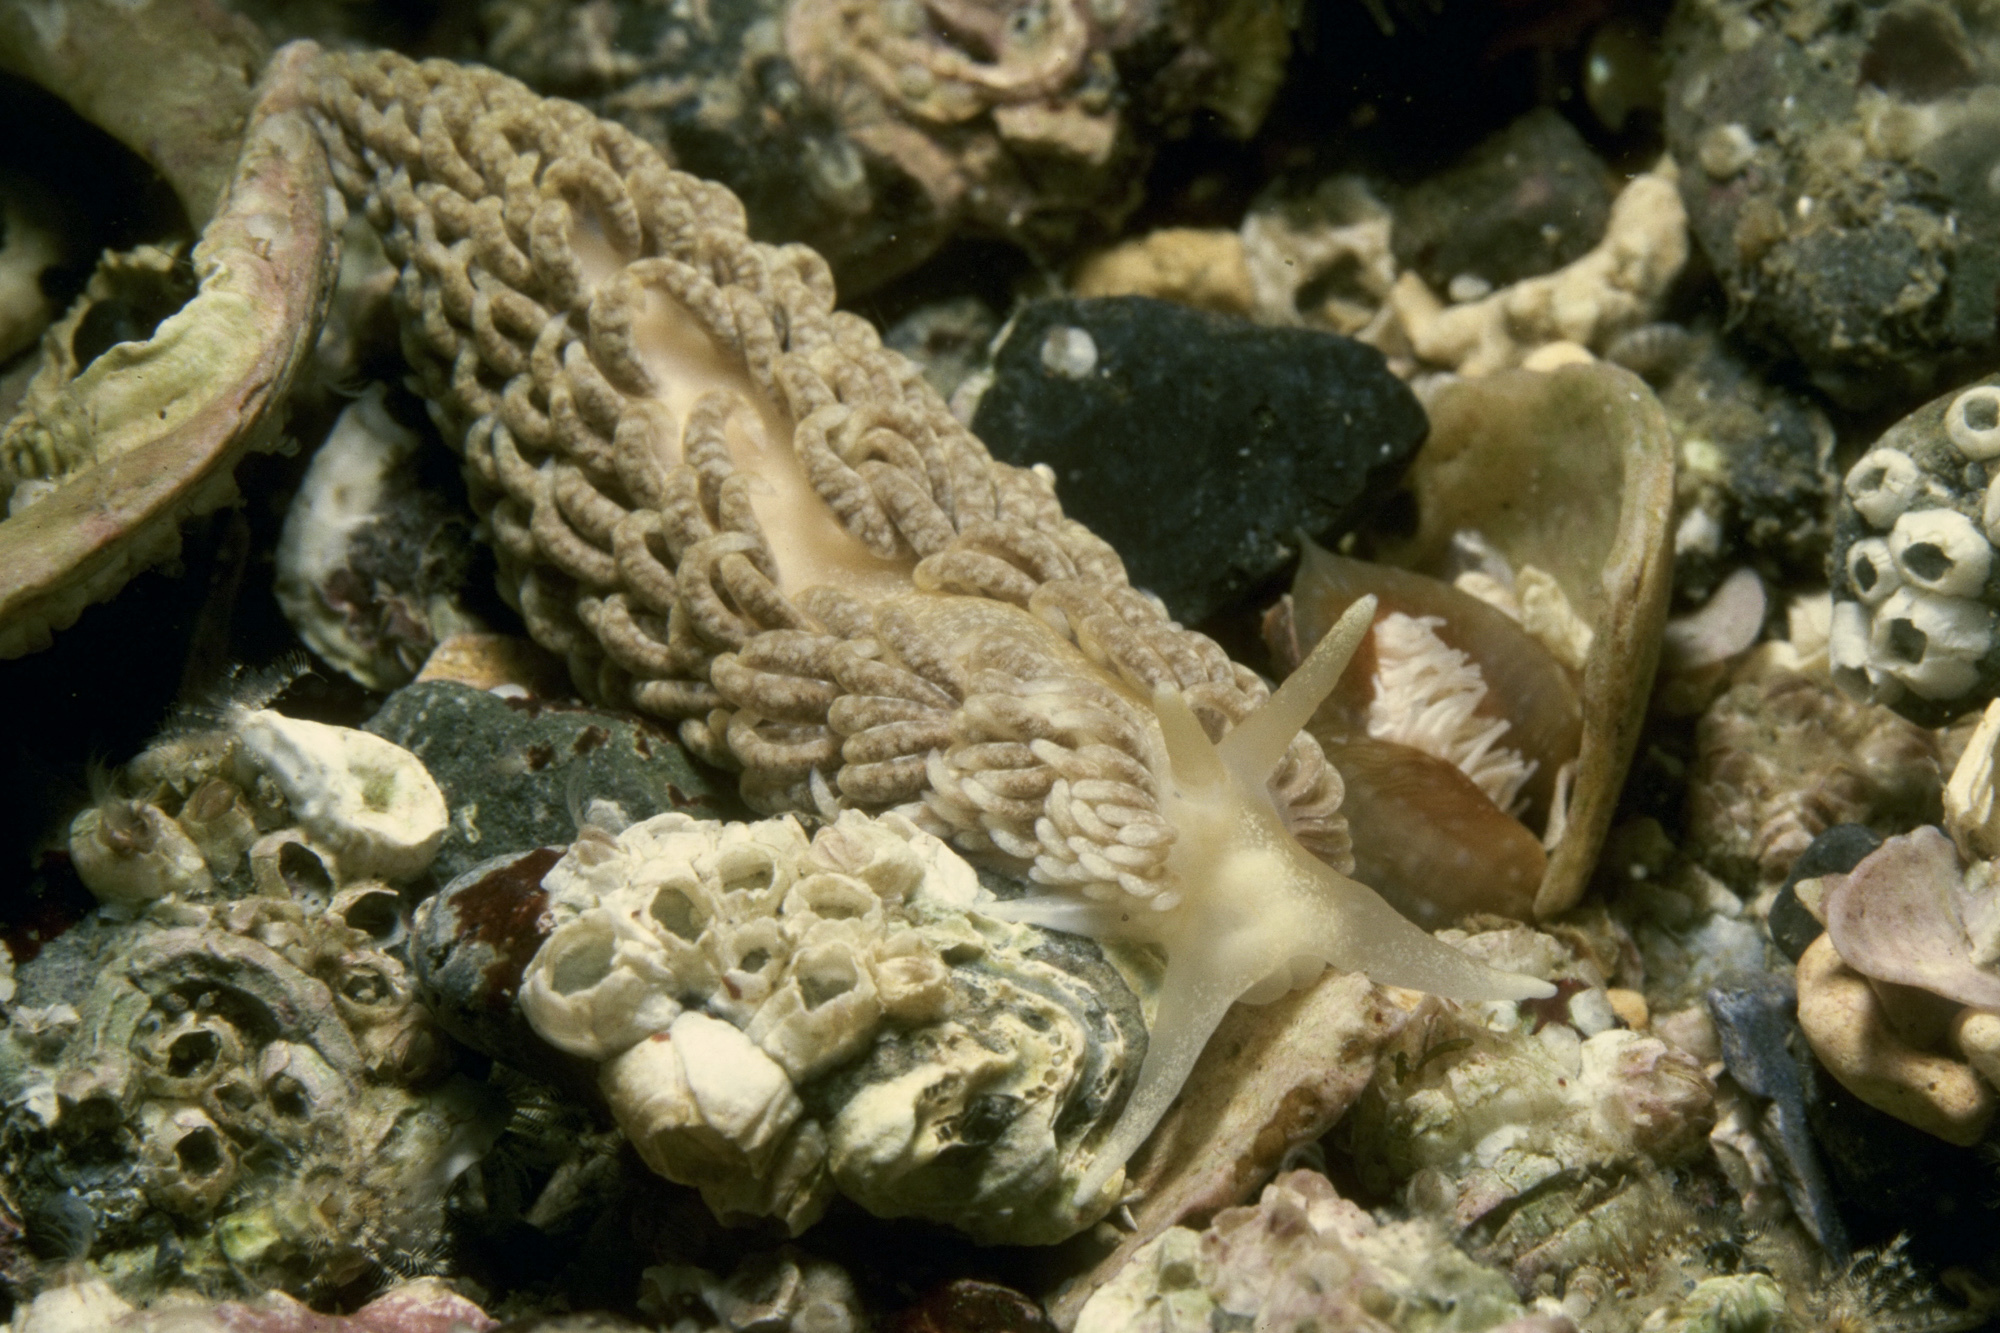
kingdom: Animalia
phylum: Mollusca
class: Gastropoda
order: Nudibranchia
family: Aeolidiidae
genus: Aeolidiella
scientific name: Aeolidiella glauca
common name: Orange-brown aeolid
